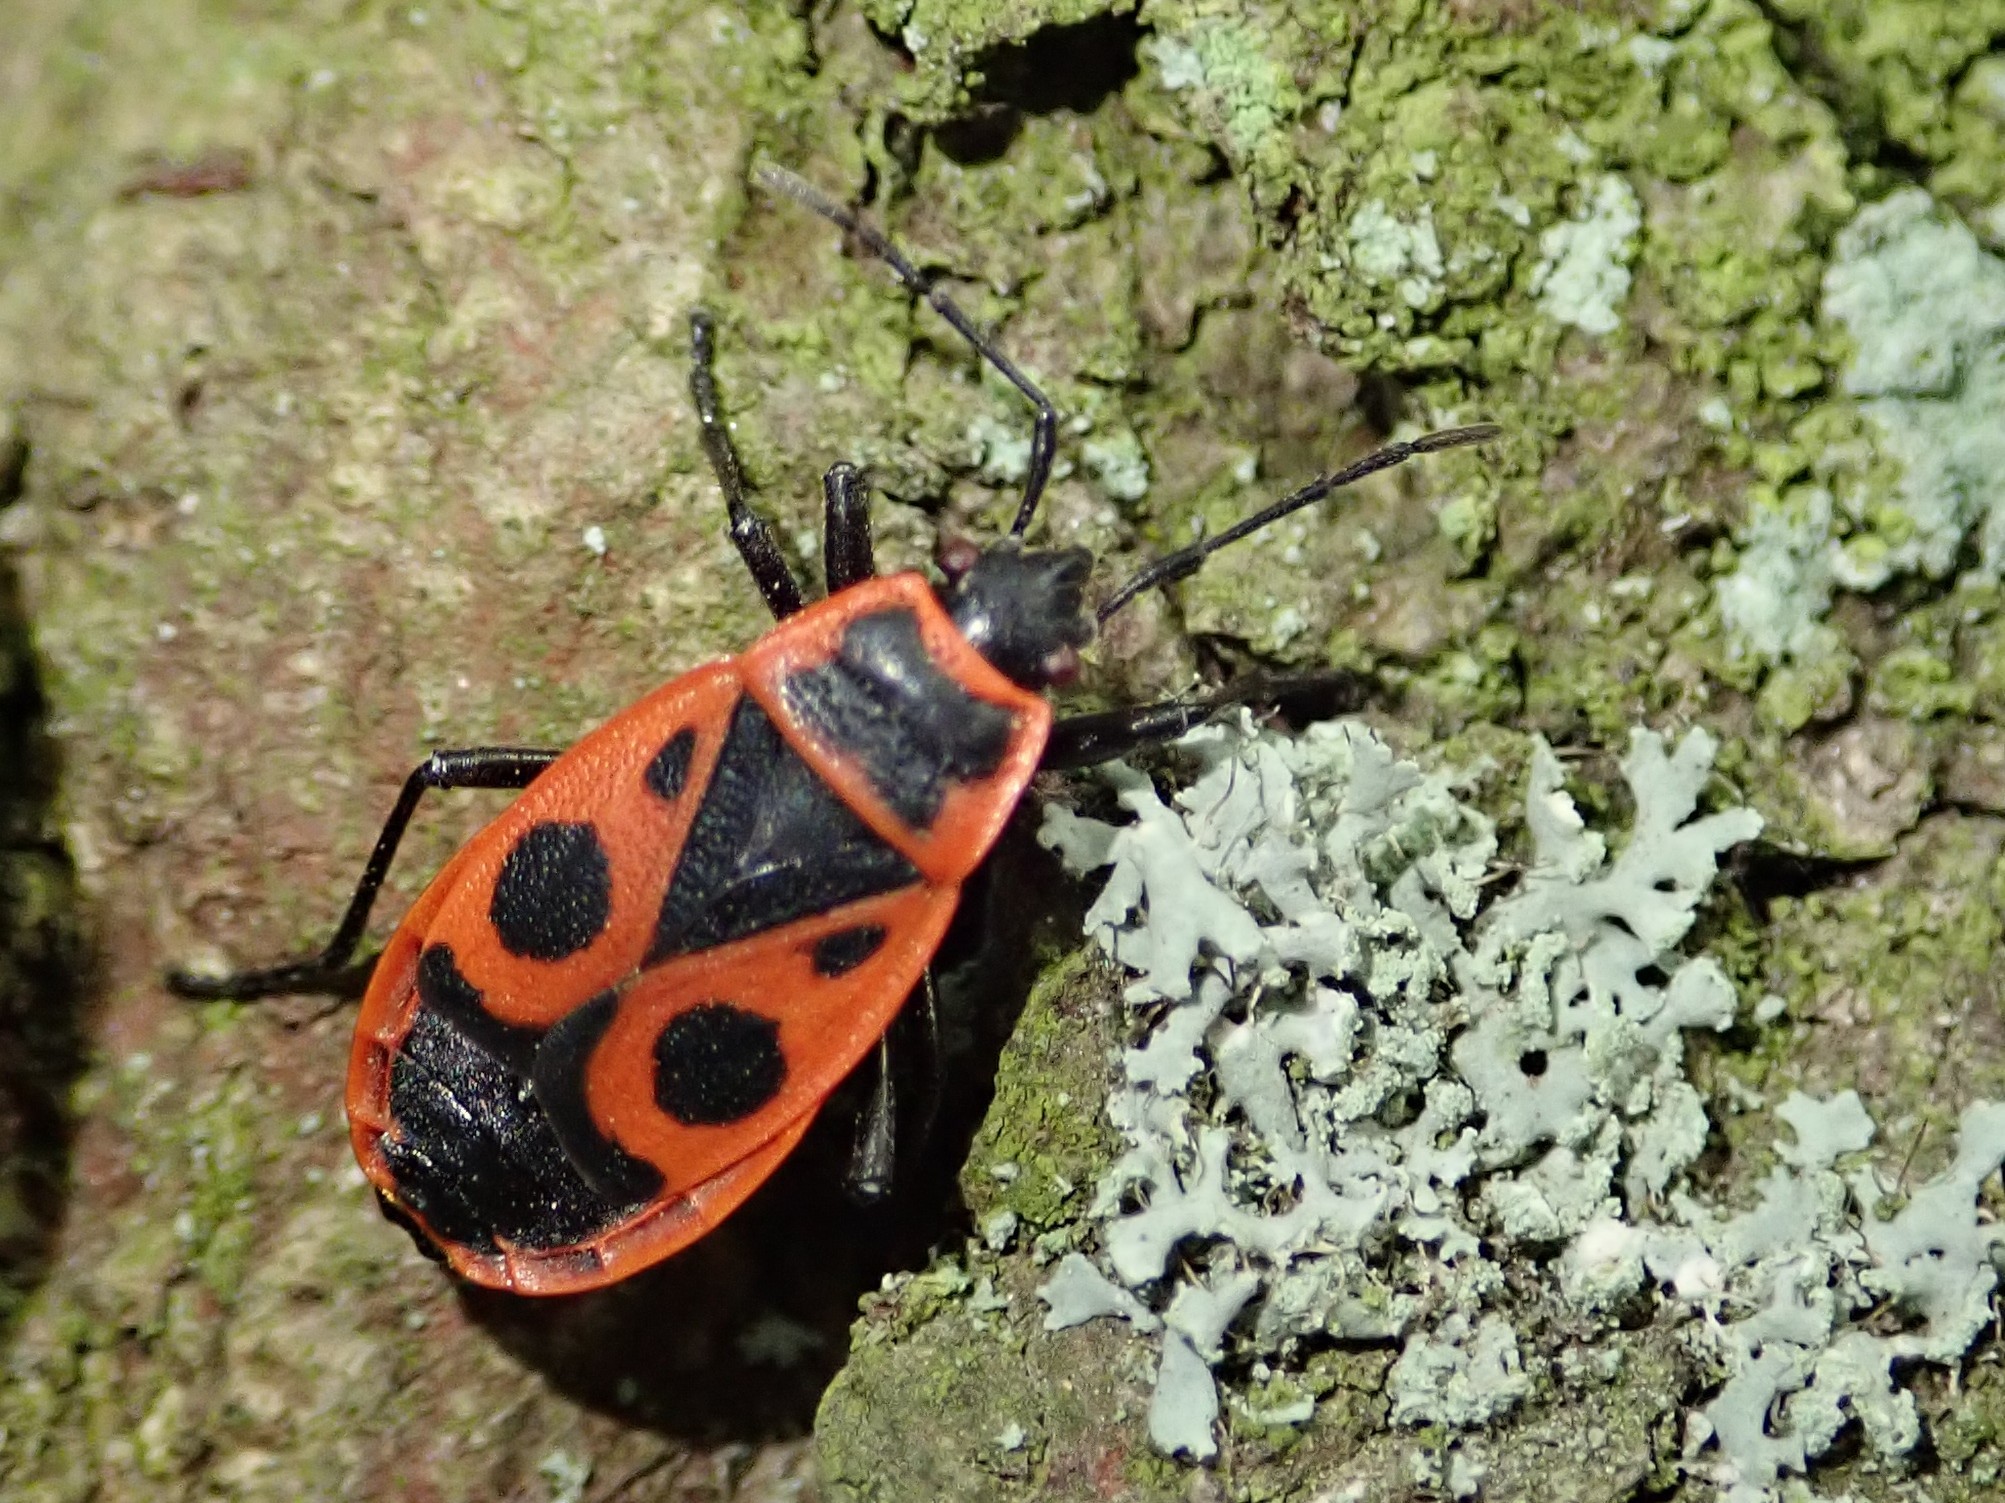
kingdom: Animalia
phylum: Arthropoda
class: Insecta
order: Hemiptera
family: Pyrrhocoridae
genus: Pyrrhocoris
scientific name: Pyrrhocoris apterus
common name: Firebug
